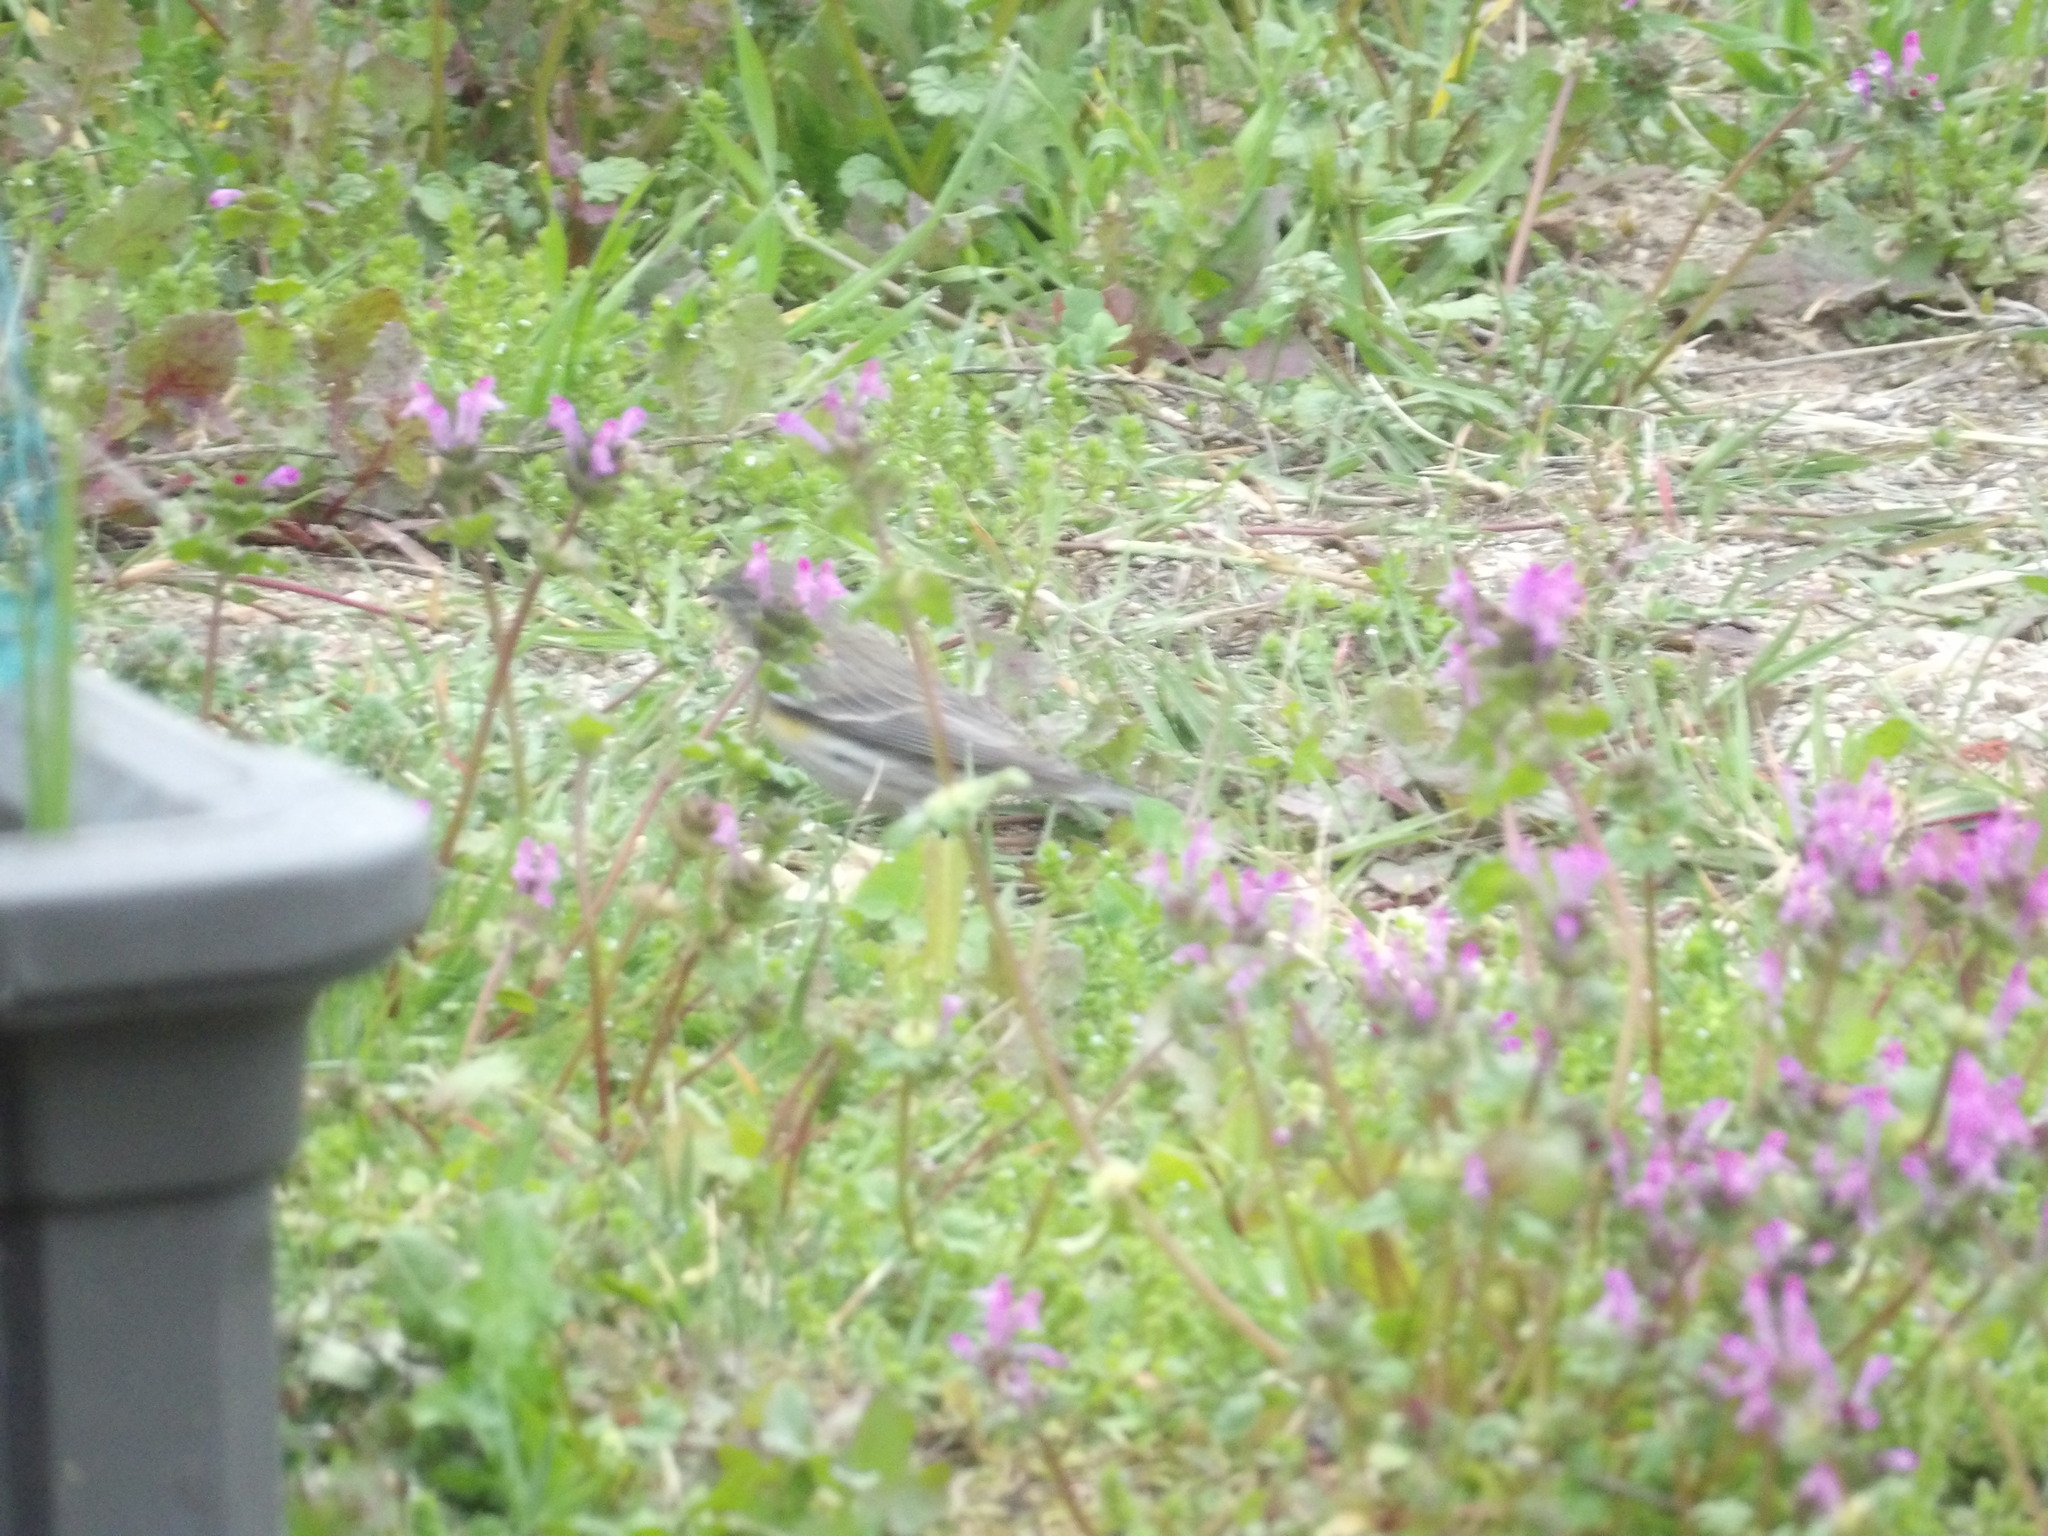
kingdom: Animalia
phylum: Chordata
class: Aves
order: Passeriformes
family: Parulidae
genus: Setophaga
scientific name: Setophaga coronata
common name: Myrtle warbler
